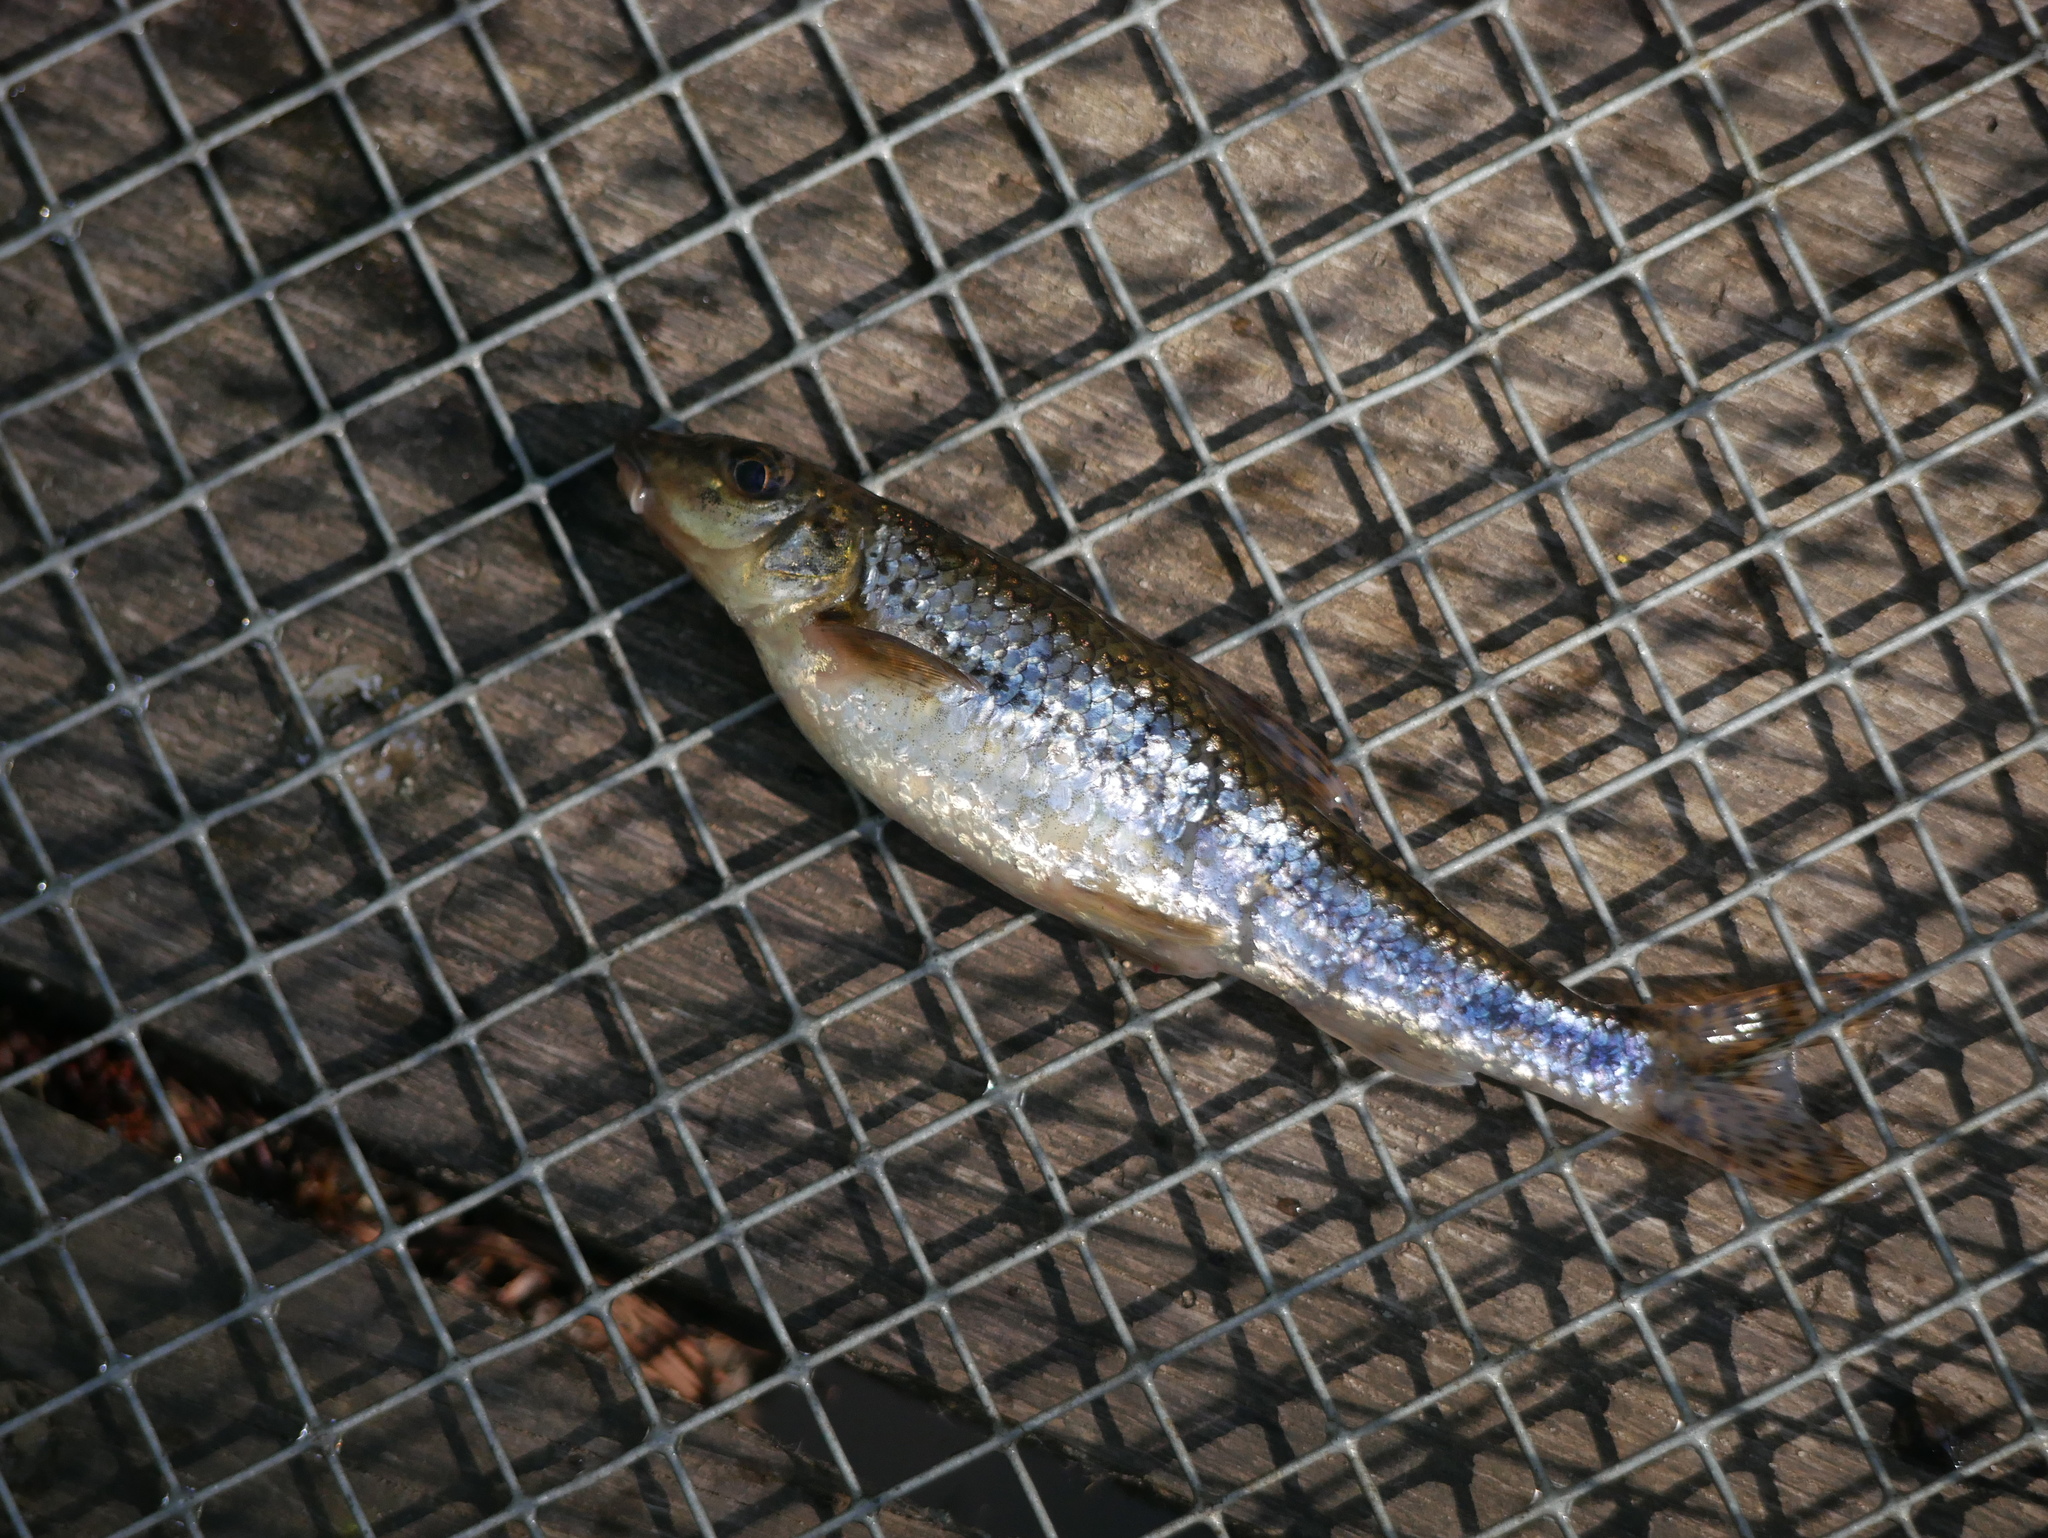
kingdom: Animalia
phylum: Chordata
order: Cypriniformes
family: Cyprinidae
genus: Gobio
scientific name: Gobio gobio
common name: Gudgeon
